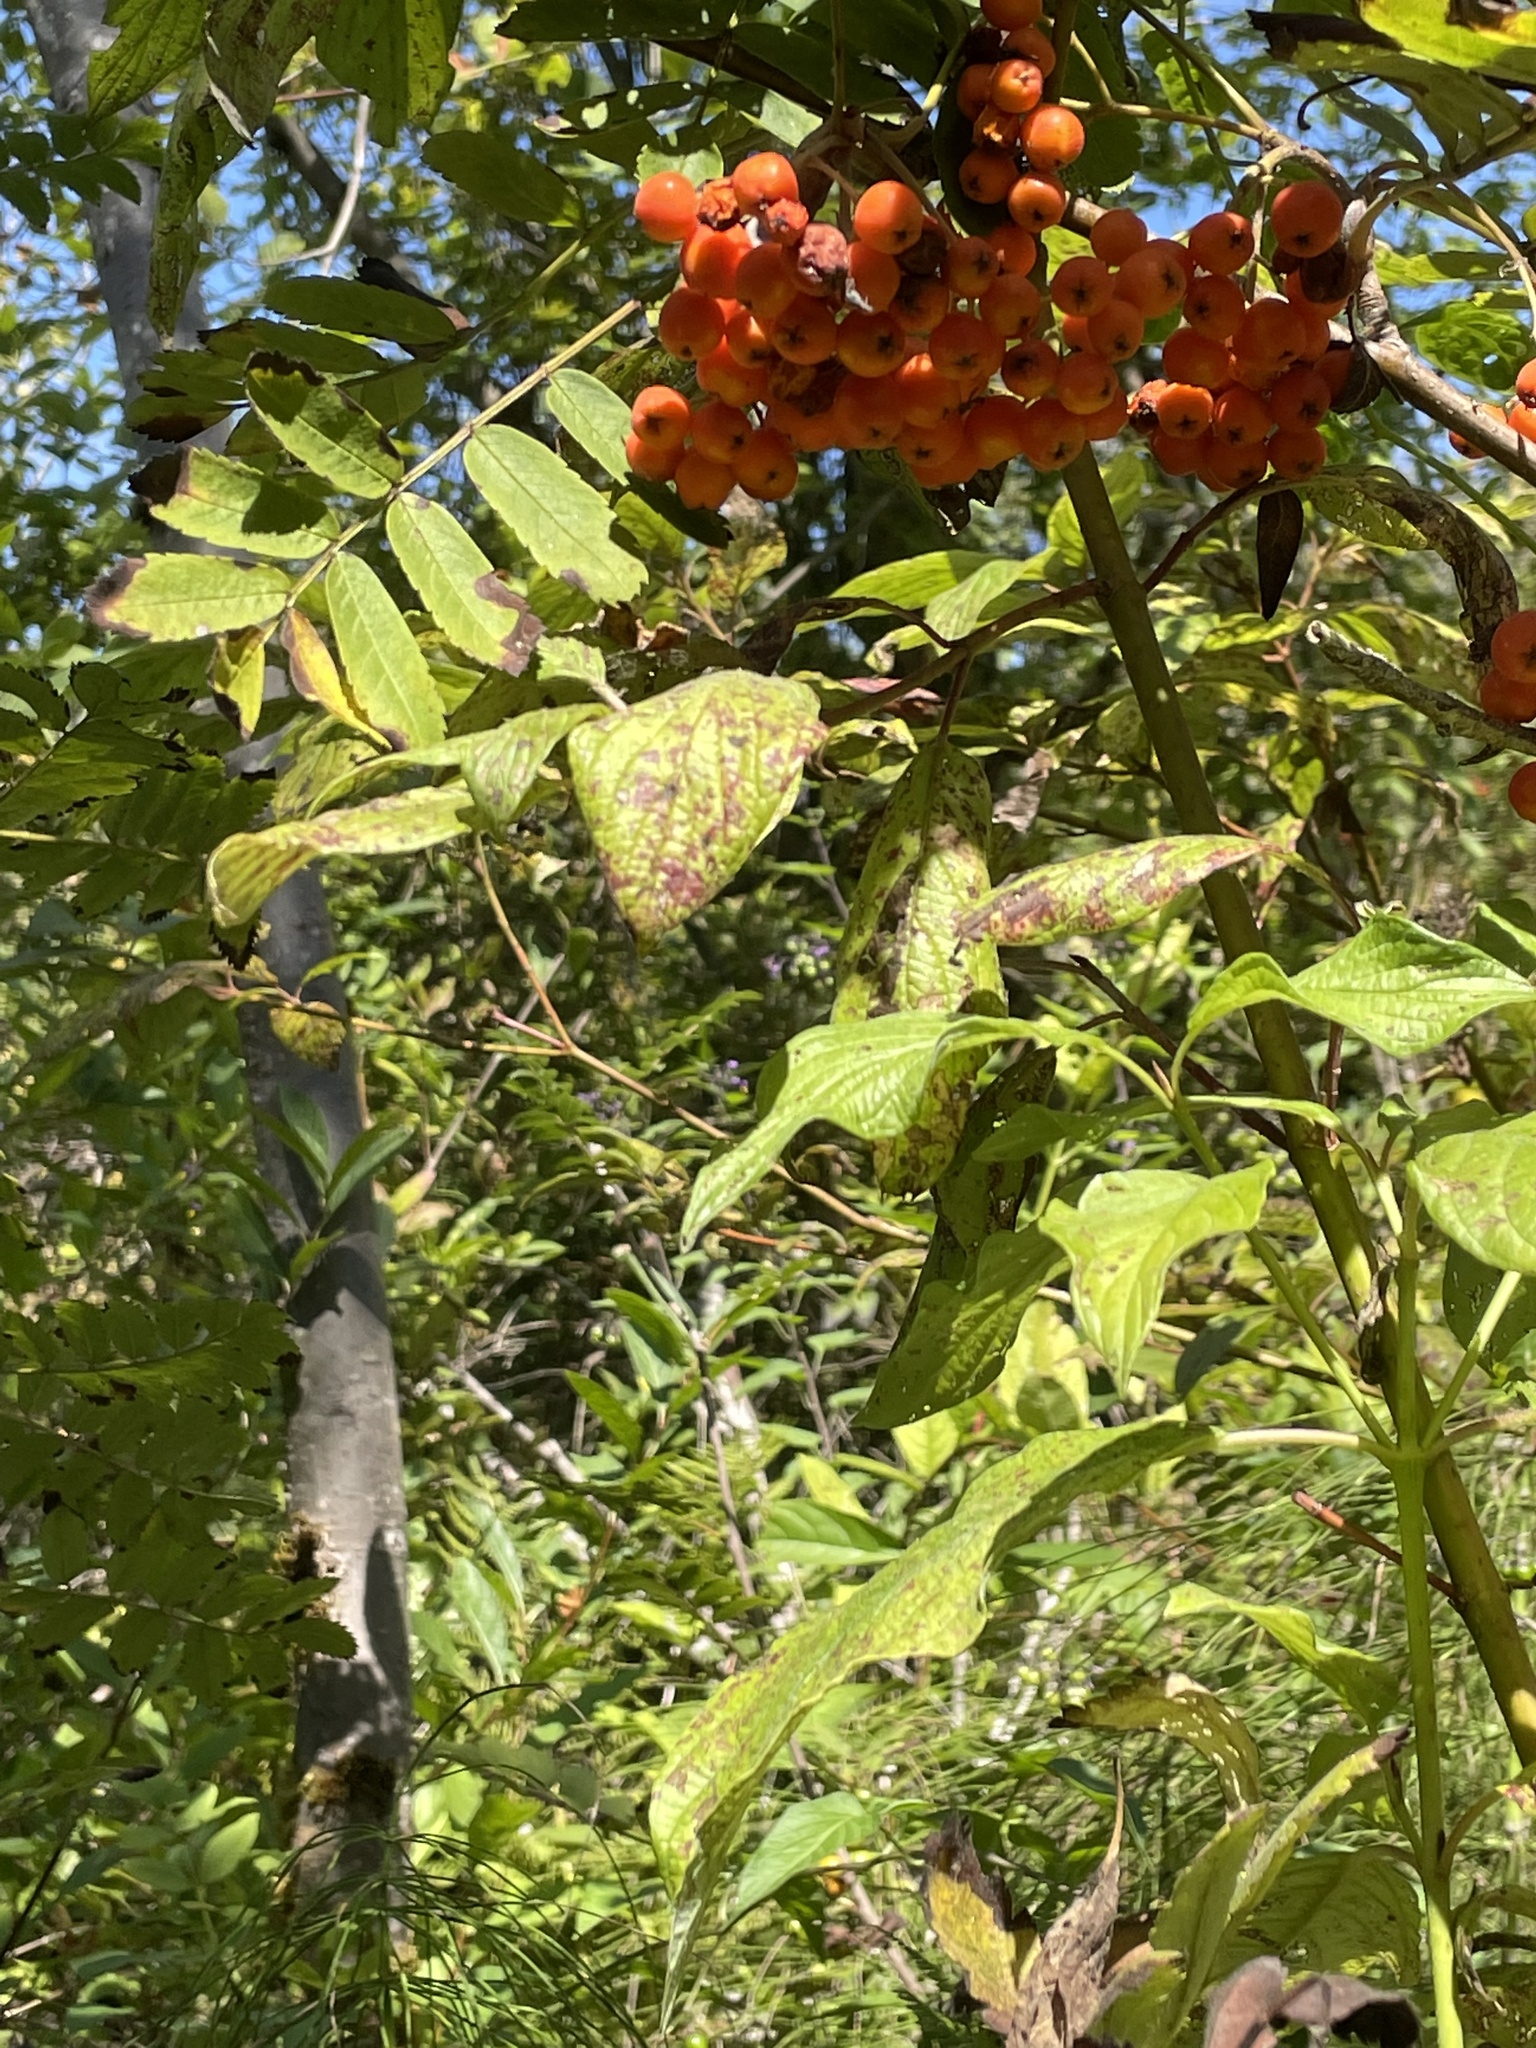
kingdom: Plantae
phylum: Tracheophyta
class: Magnoliopsida
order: Rosales
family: Rosaceae
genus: Sorbus
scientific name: Sorbus aucuparia
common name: Rowan
